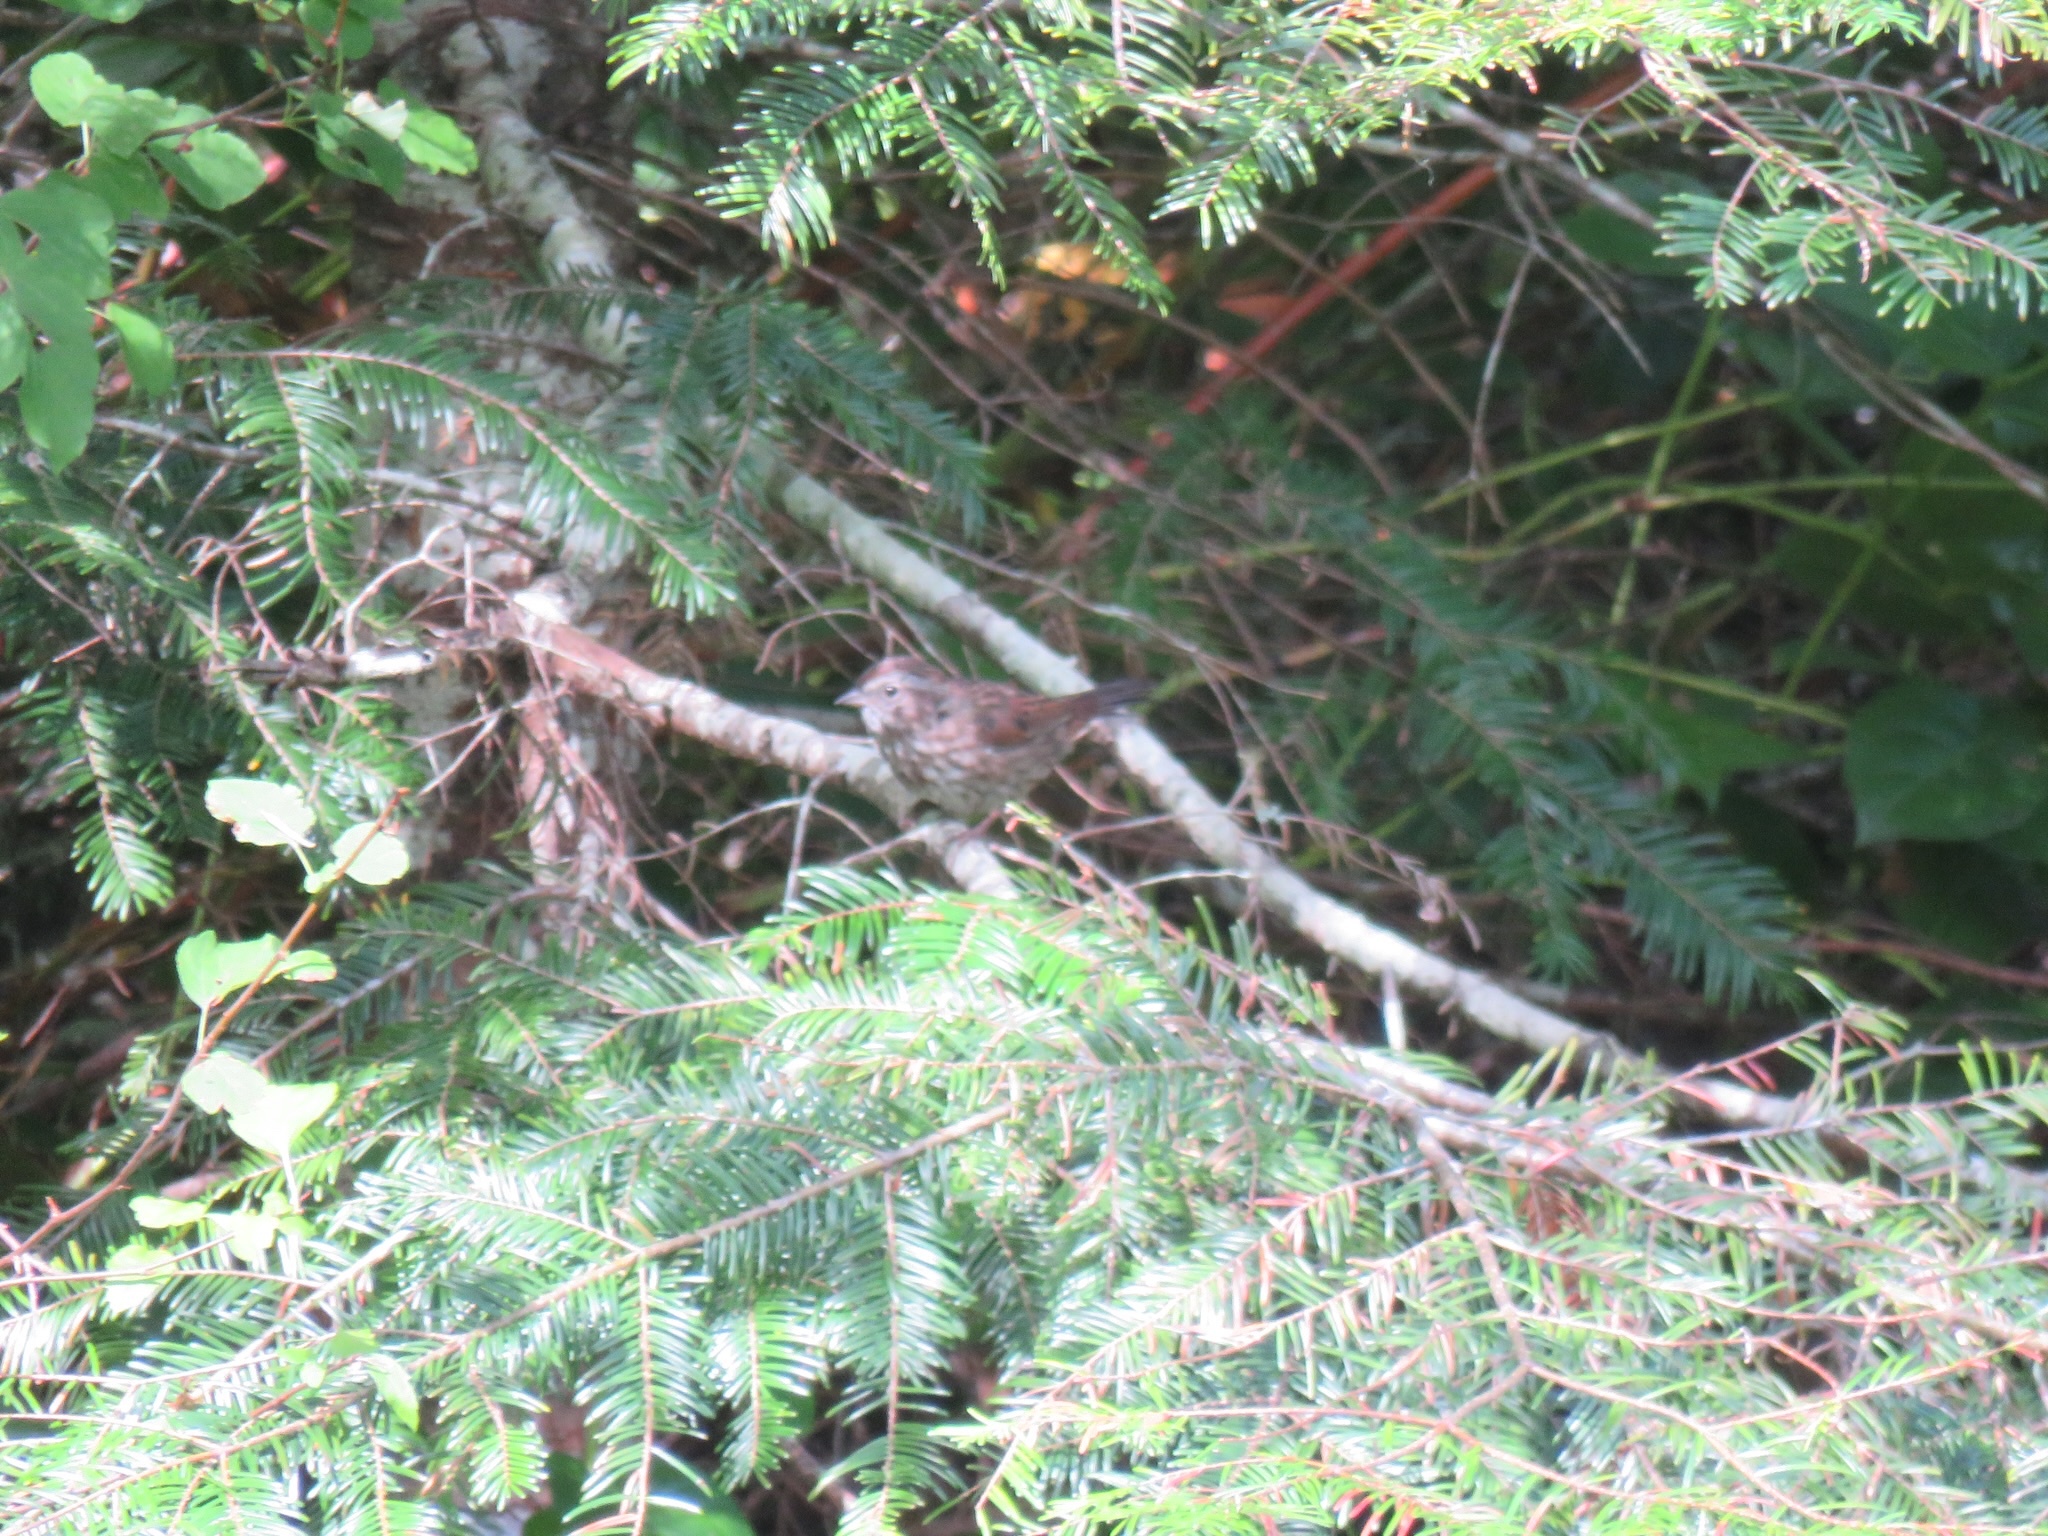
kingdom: Animalia
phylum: Chordata
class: Aves
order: Passeriformes
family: Passerellidae
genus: Melospiza
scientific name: Melospiza melodia
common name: Song sparrow
